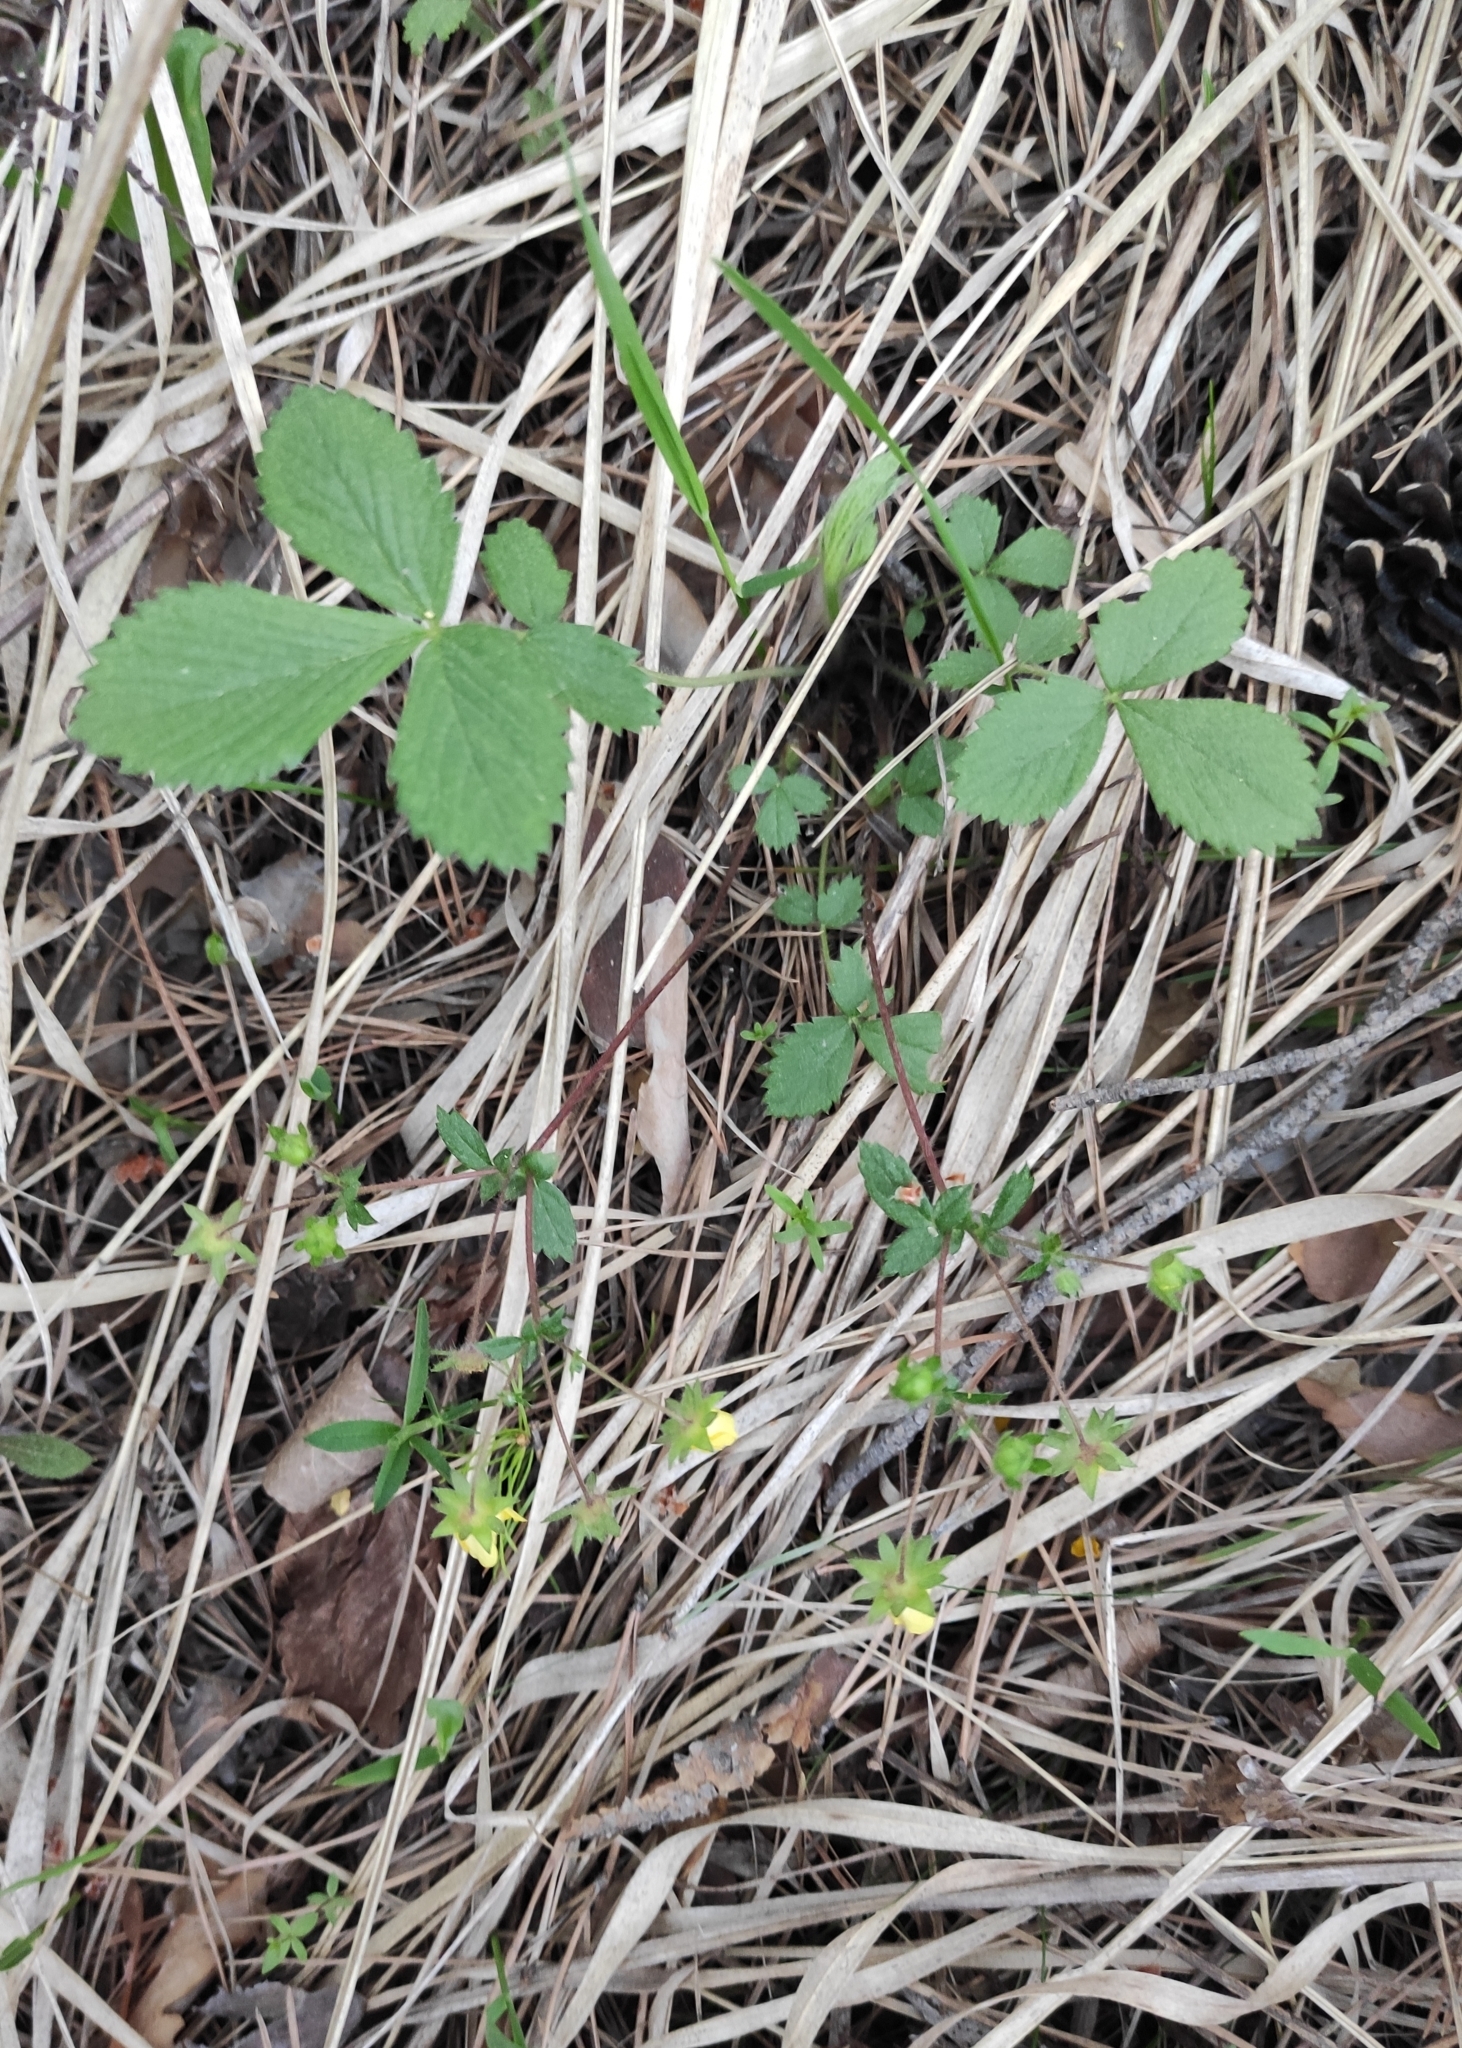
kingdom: Plantae
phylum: Tracheophyta
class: Magnoliopsida
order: Rosales
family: Rosaceae
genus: Potentilla
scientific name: Potentilla fragarioides
